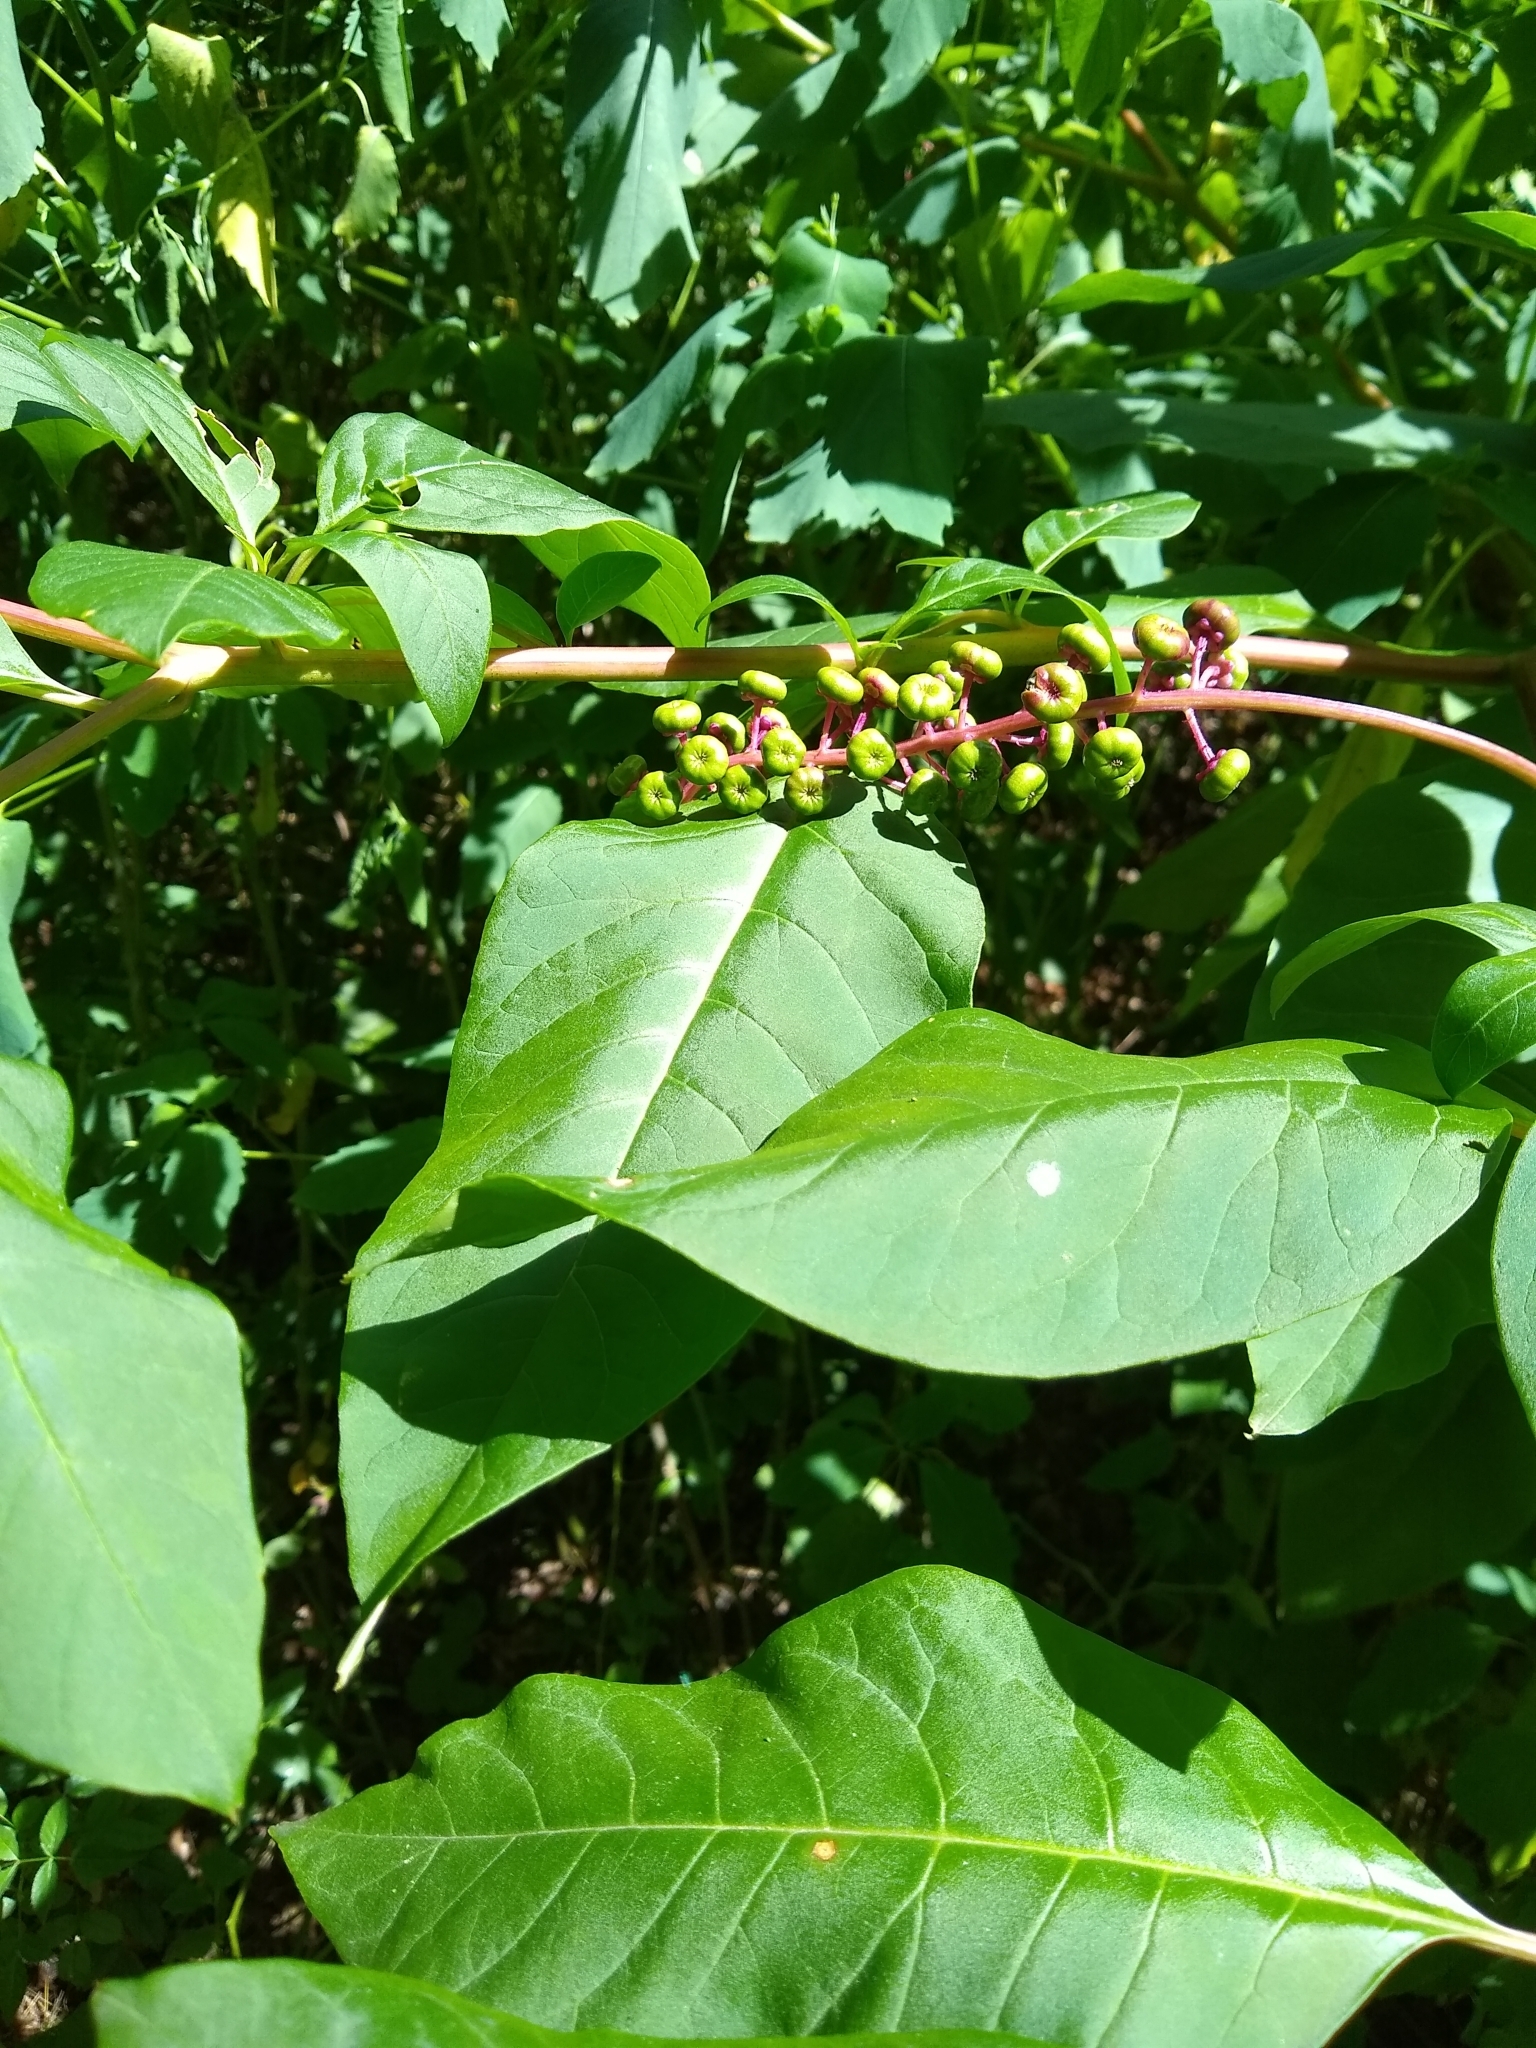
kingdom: Plantae
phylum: Tracheophyta
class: Magnoliopsida
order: Caryophyllales
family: Phytolaccaceae
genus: Phytolacca
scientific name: Phytolacca americana
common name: American pokeweed
